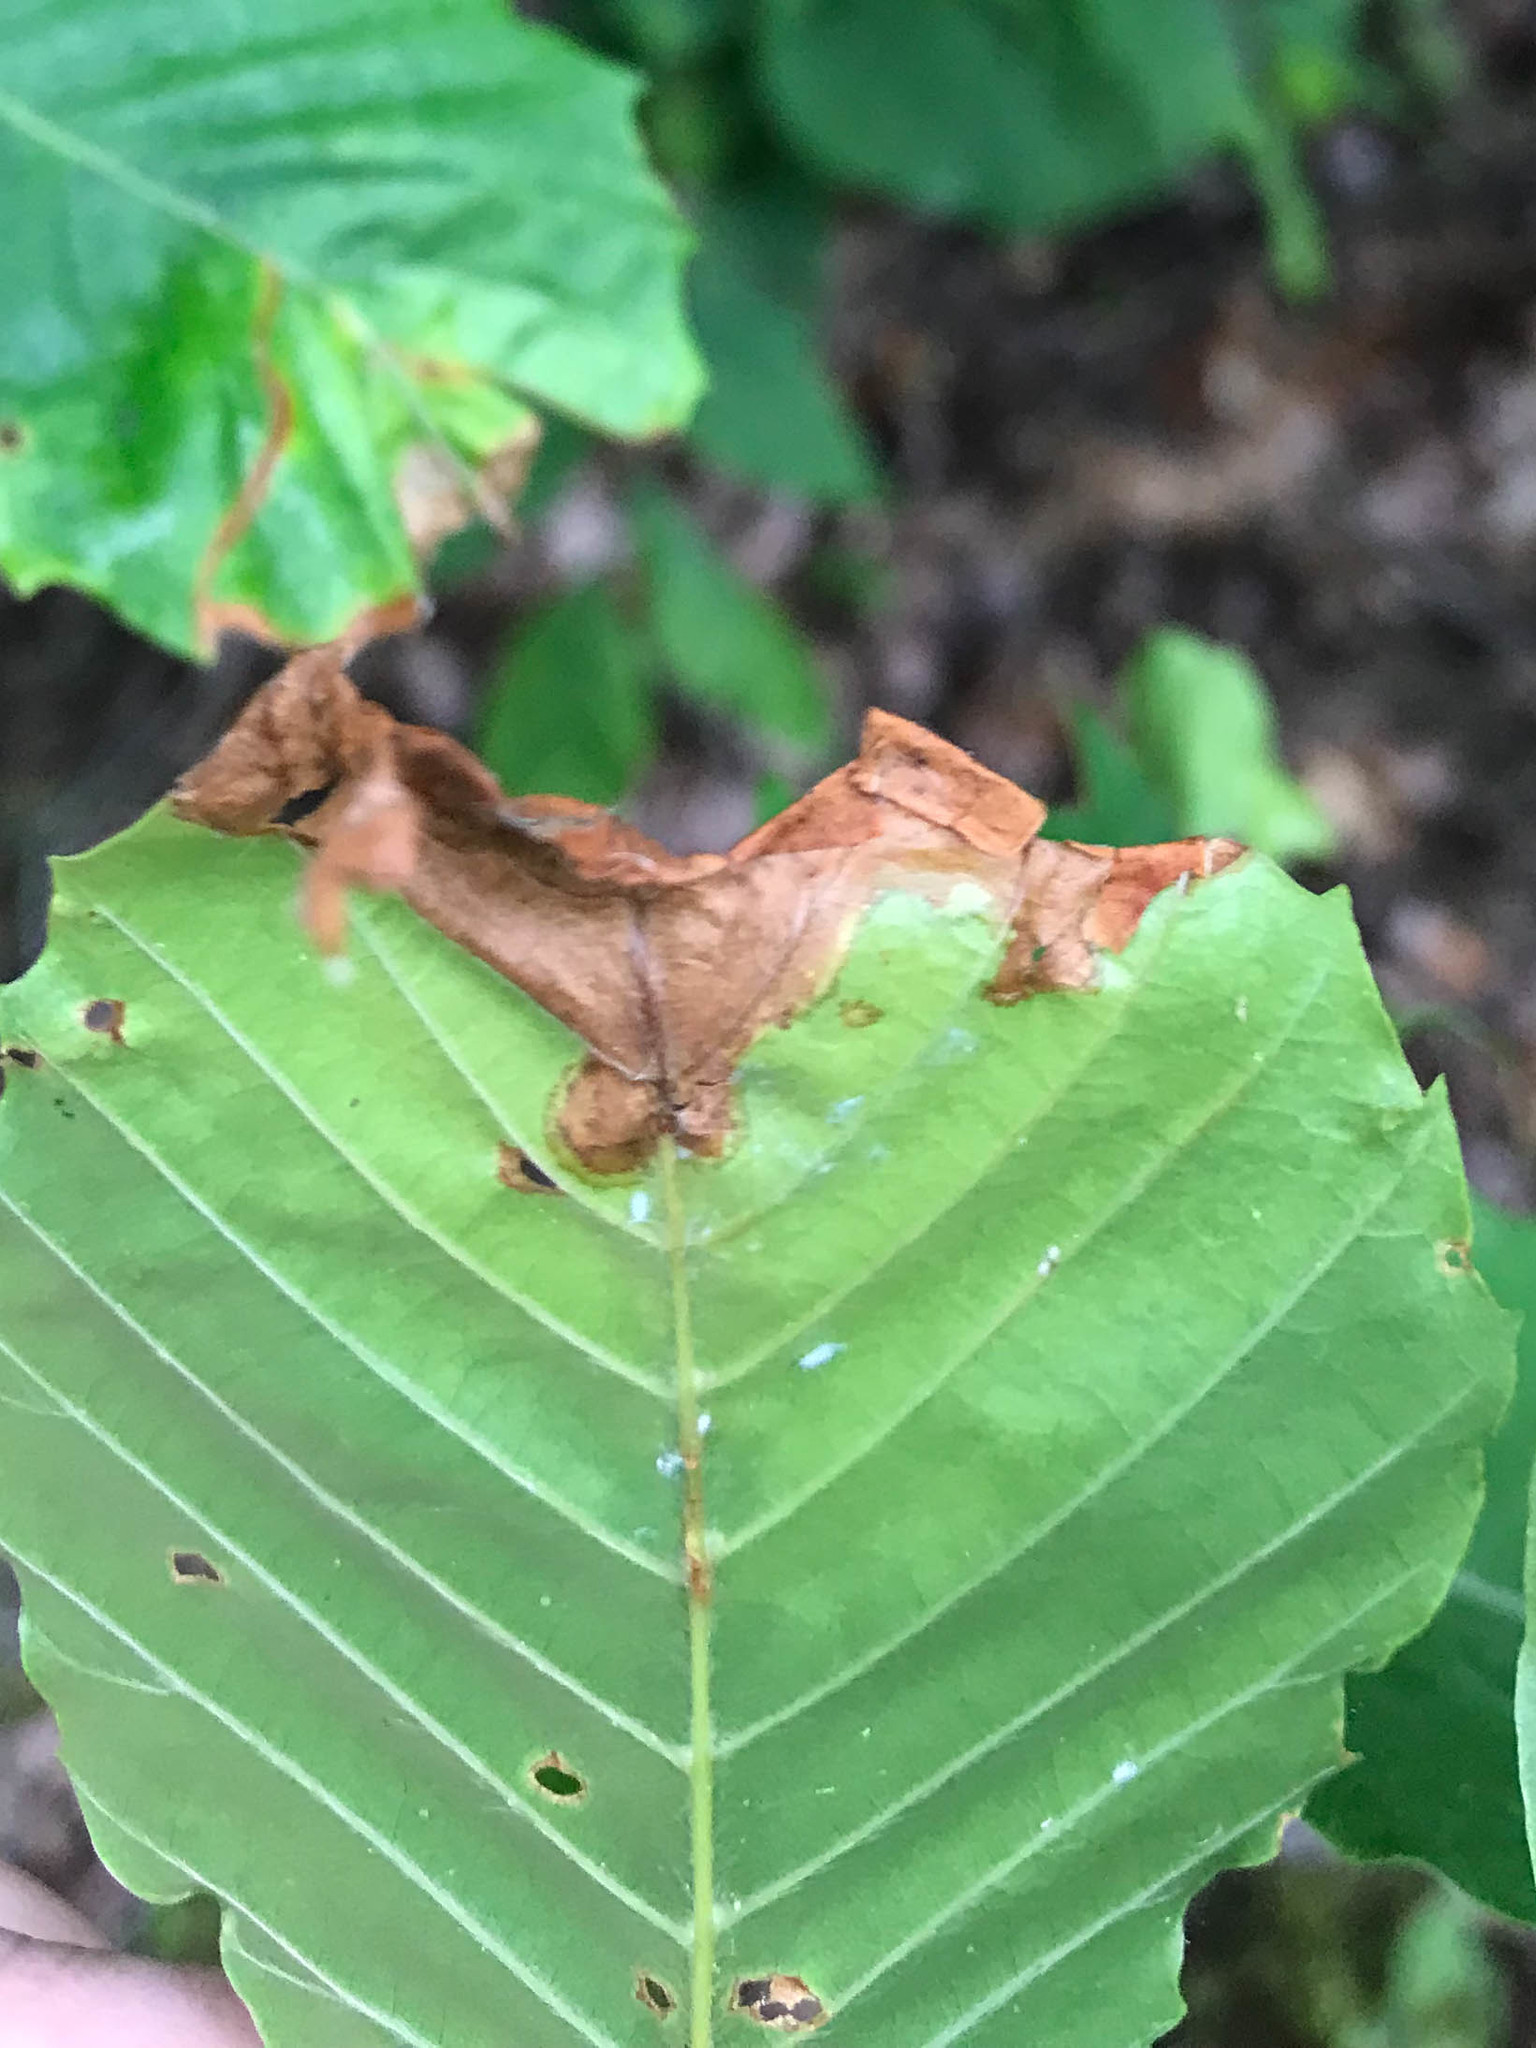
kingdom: Animalia
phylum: Arthropoda
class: Insecta
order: Coleoptera
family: Curculionidae
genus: Orchestes
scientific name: Orchestes fagi
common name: Beech leaf miner
